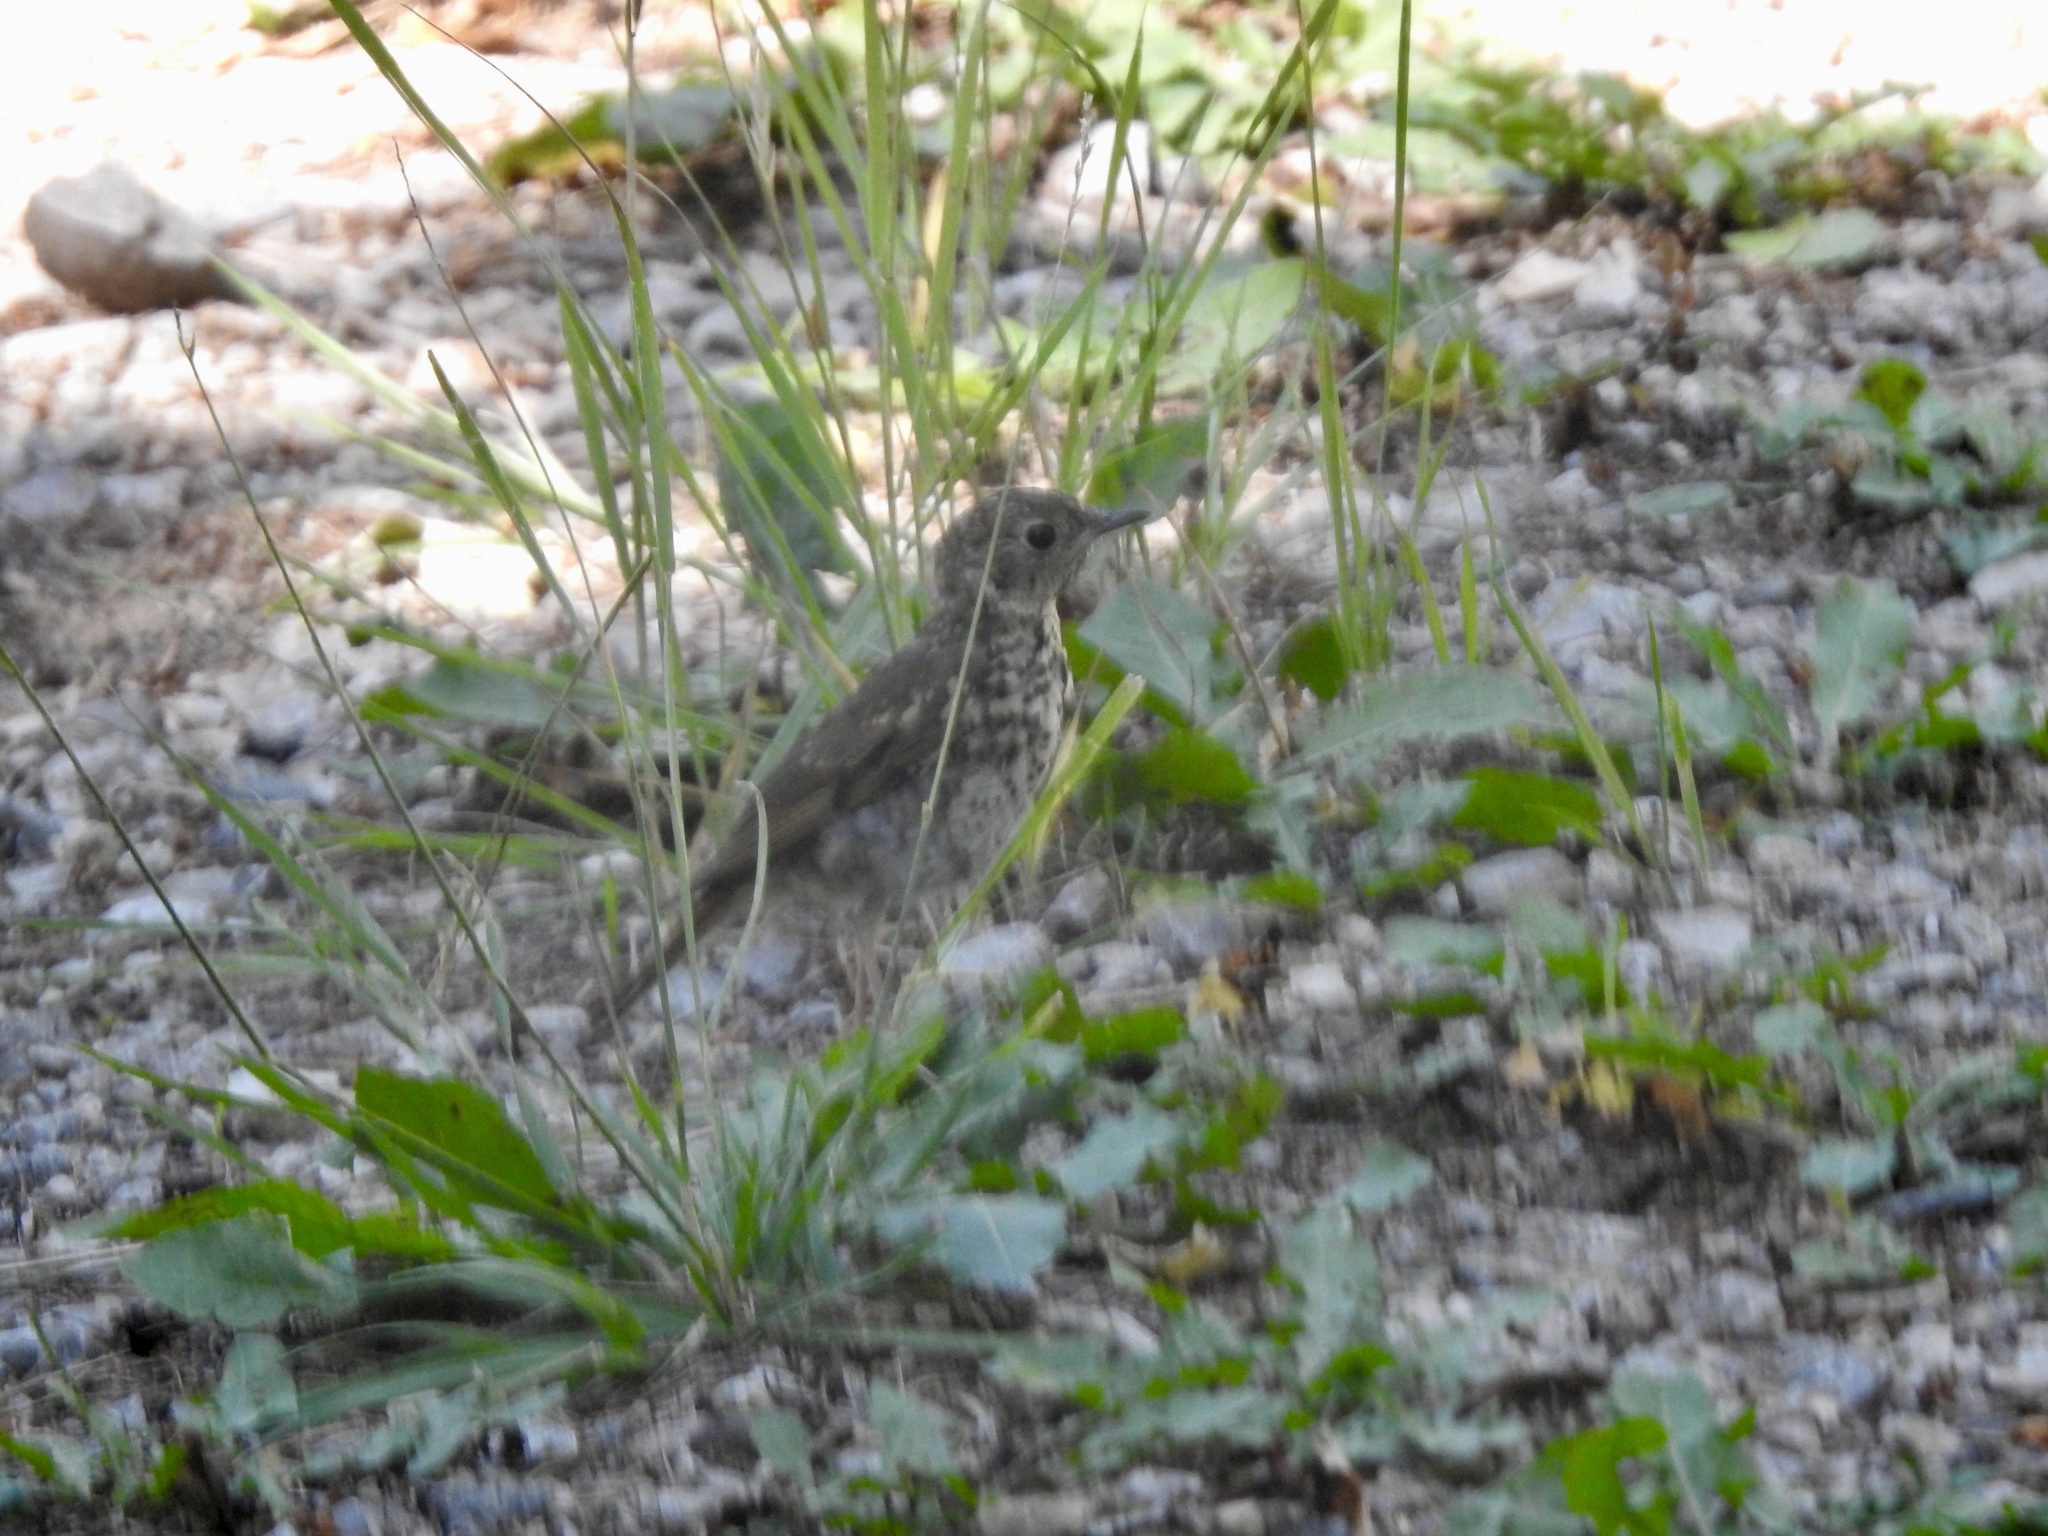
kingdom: Animalia
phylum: Chordata
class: Aves
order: Passeriformes
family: Turdidae
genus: Catharus
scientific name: Catharus guttatus
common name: Hermit thrush
